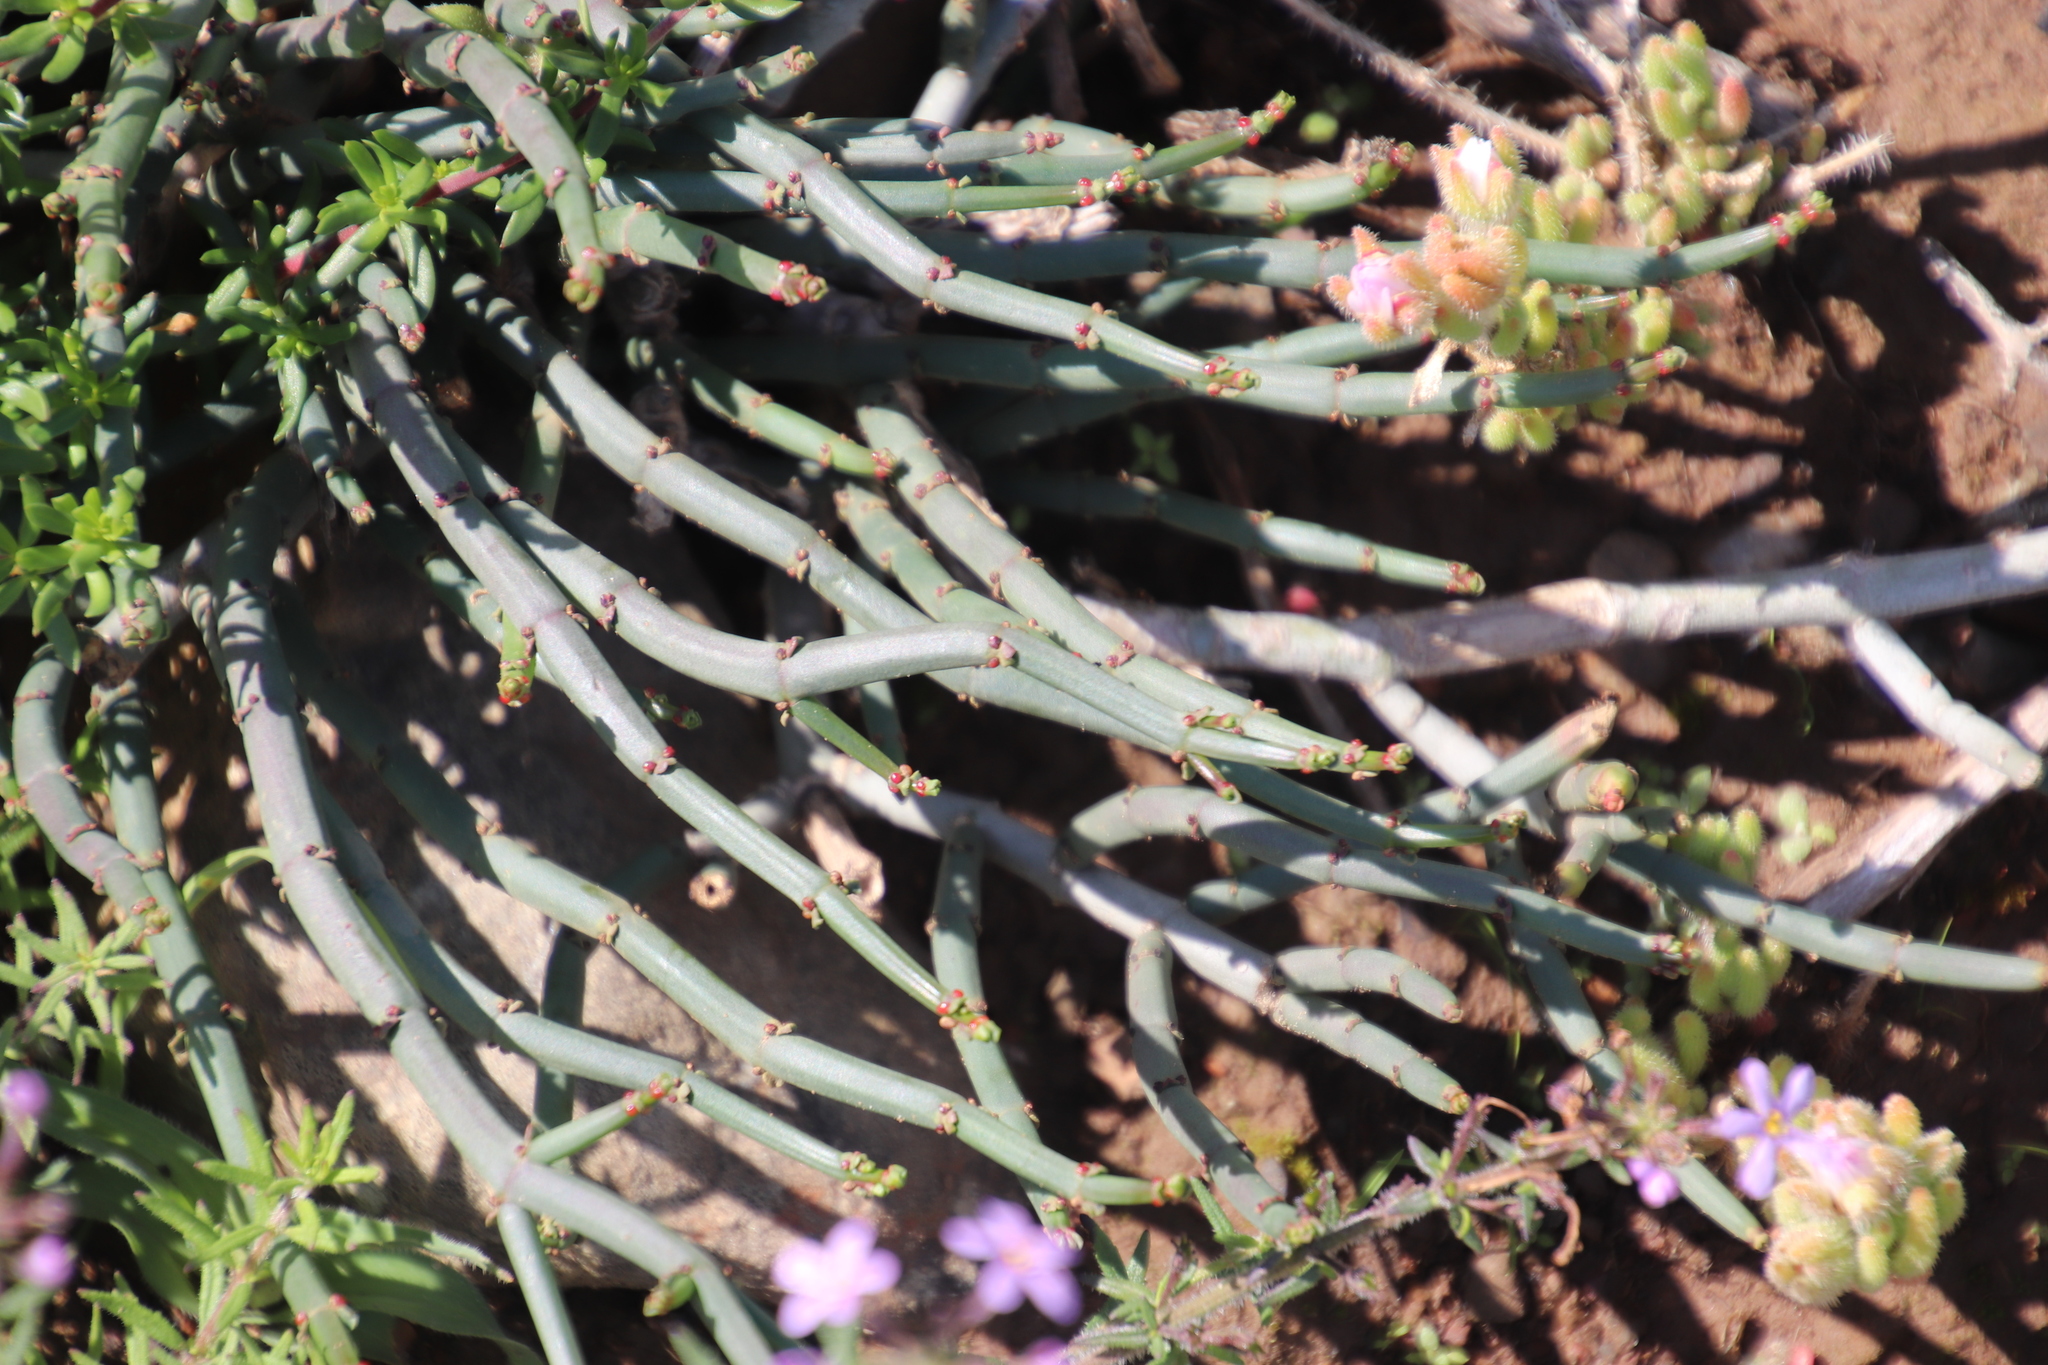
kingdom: Plantae
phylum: Tracheophyta
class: Magnoliopsida
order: Malpighiales
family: Euphorbiaceae
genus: Euphorbia
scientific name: Euphorbia burmanni
